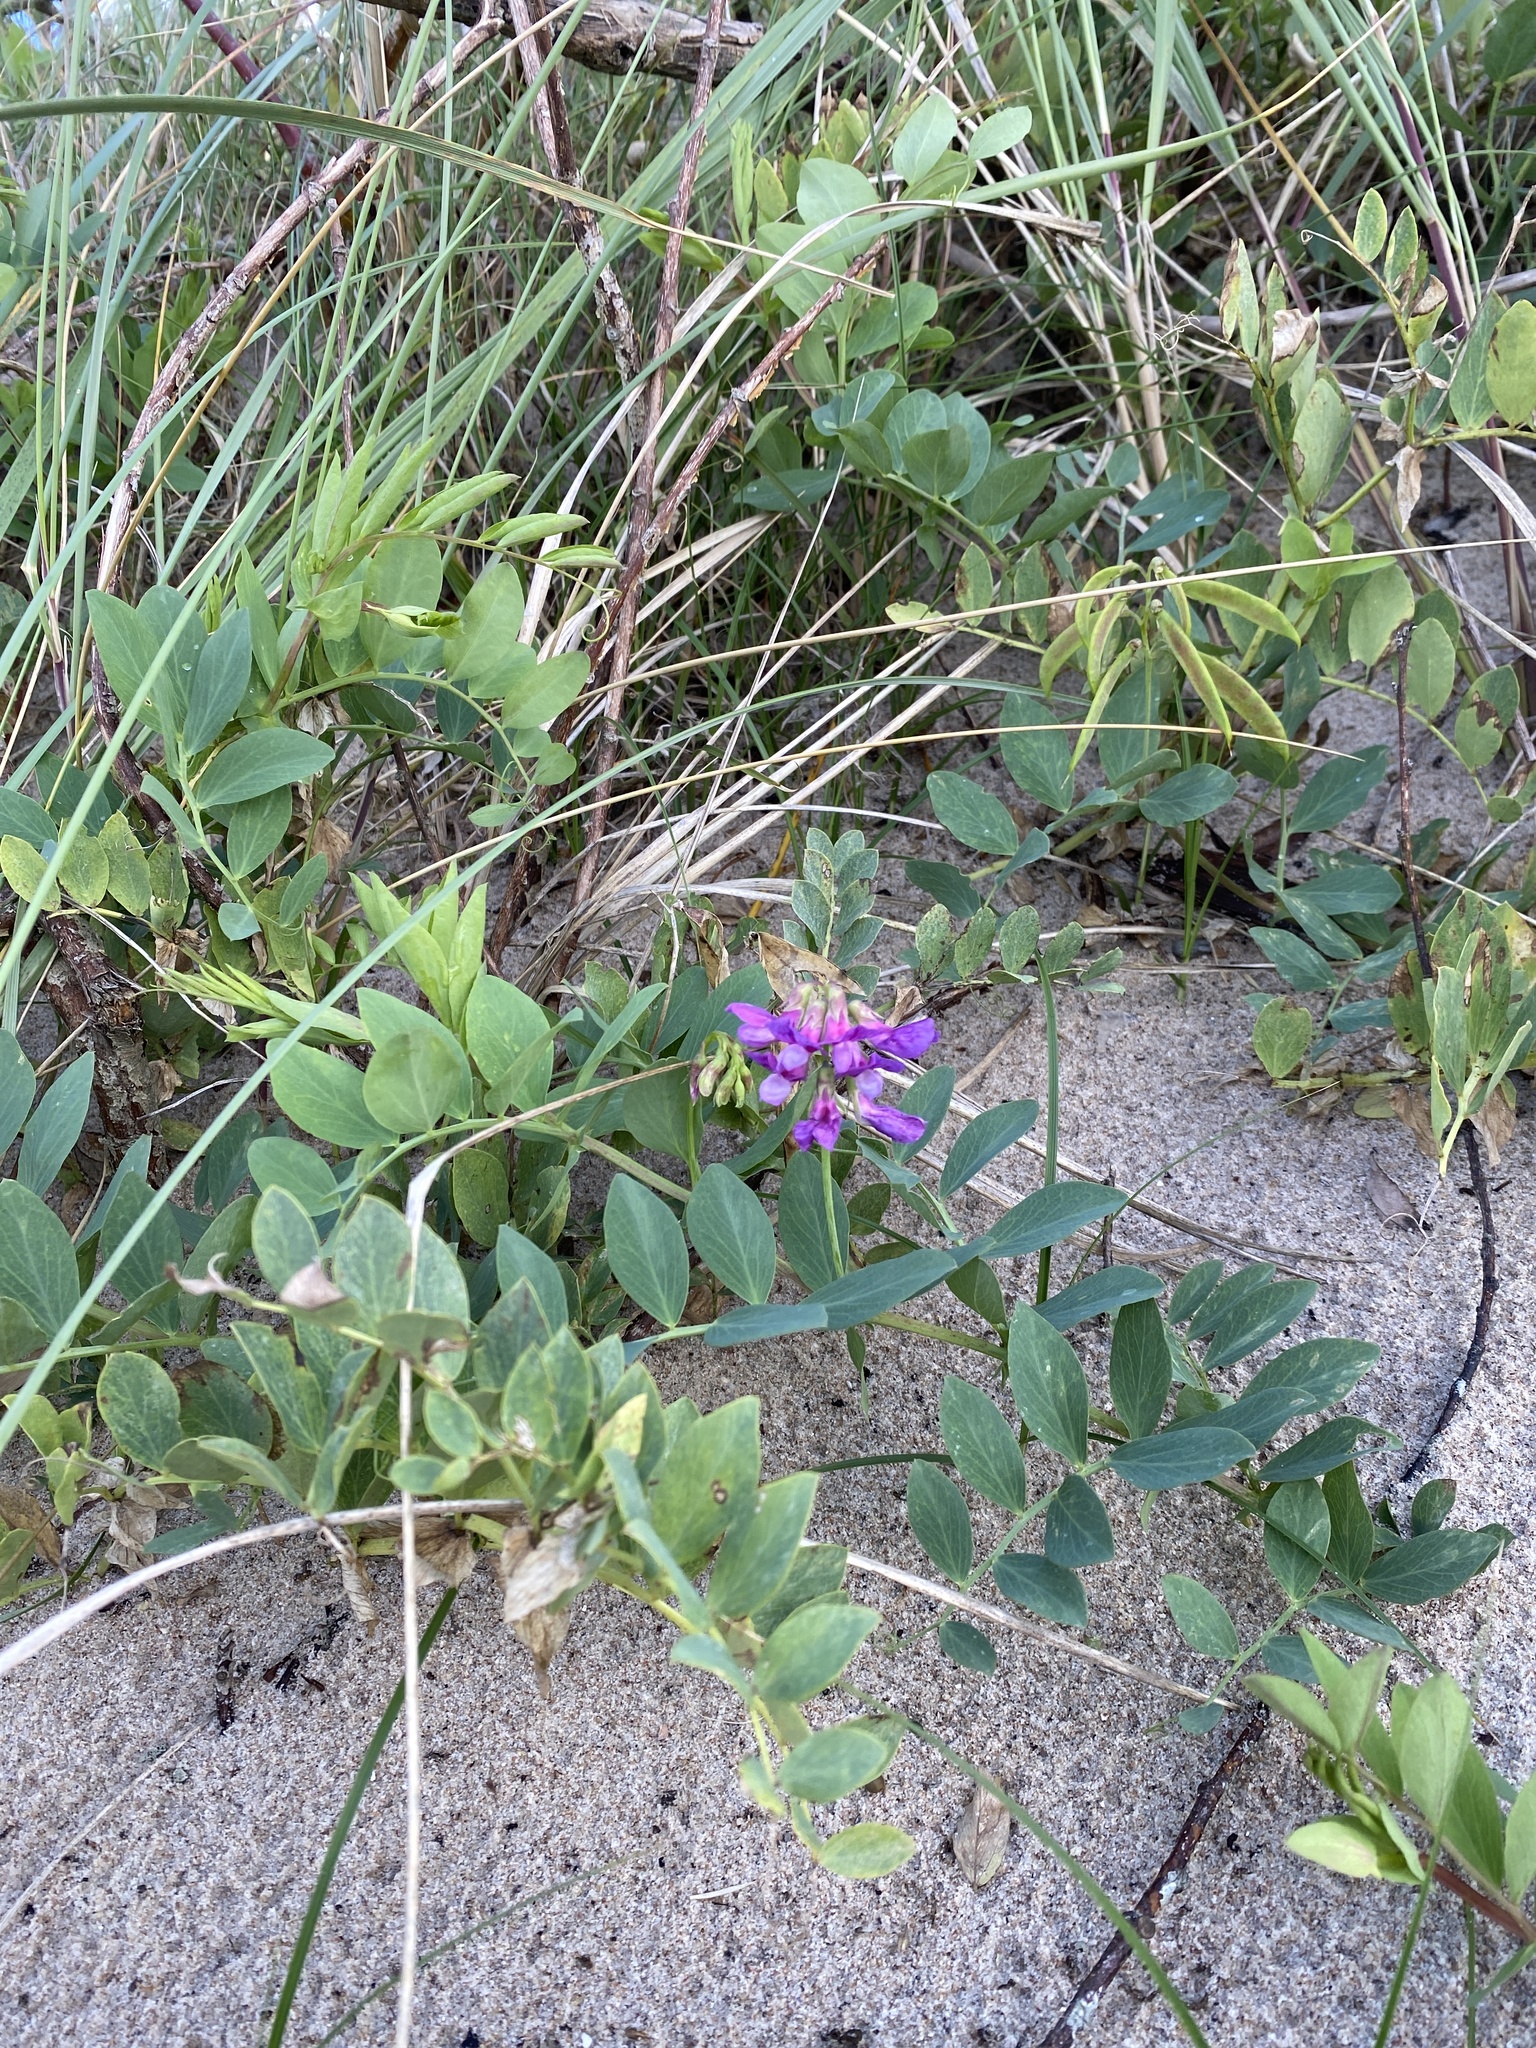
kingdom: Plantae
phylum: Tracheophyta
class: Magnoliopsida
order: Fabales
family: Fabaceae
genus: Lathyrus
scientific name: Lathyrus japonicus
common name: Sea pea
